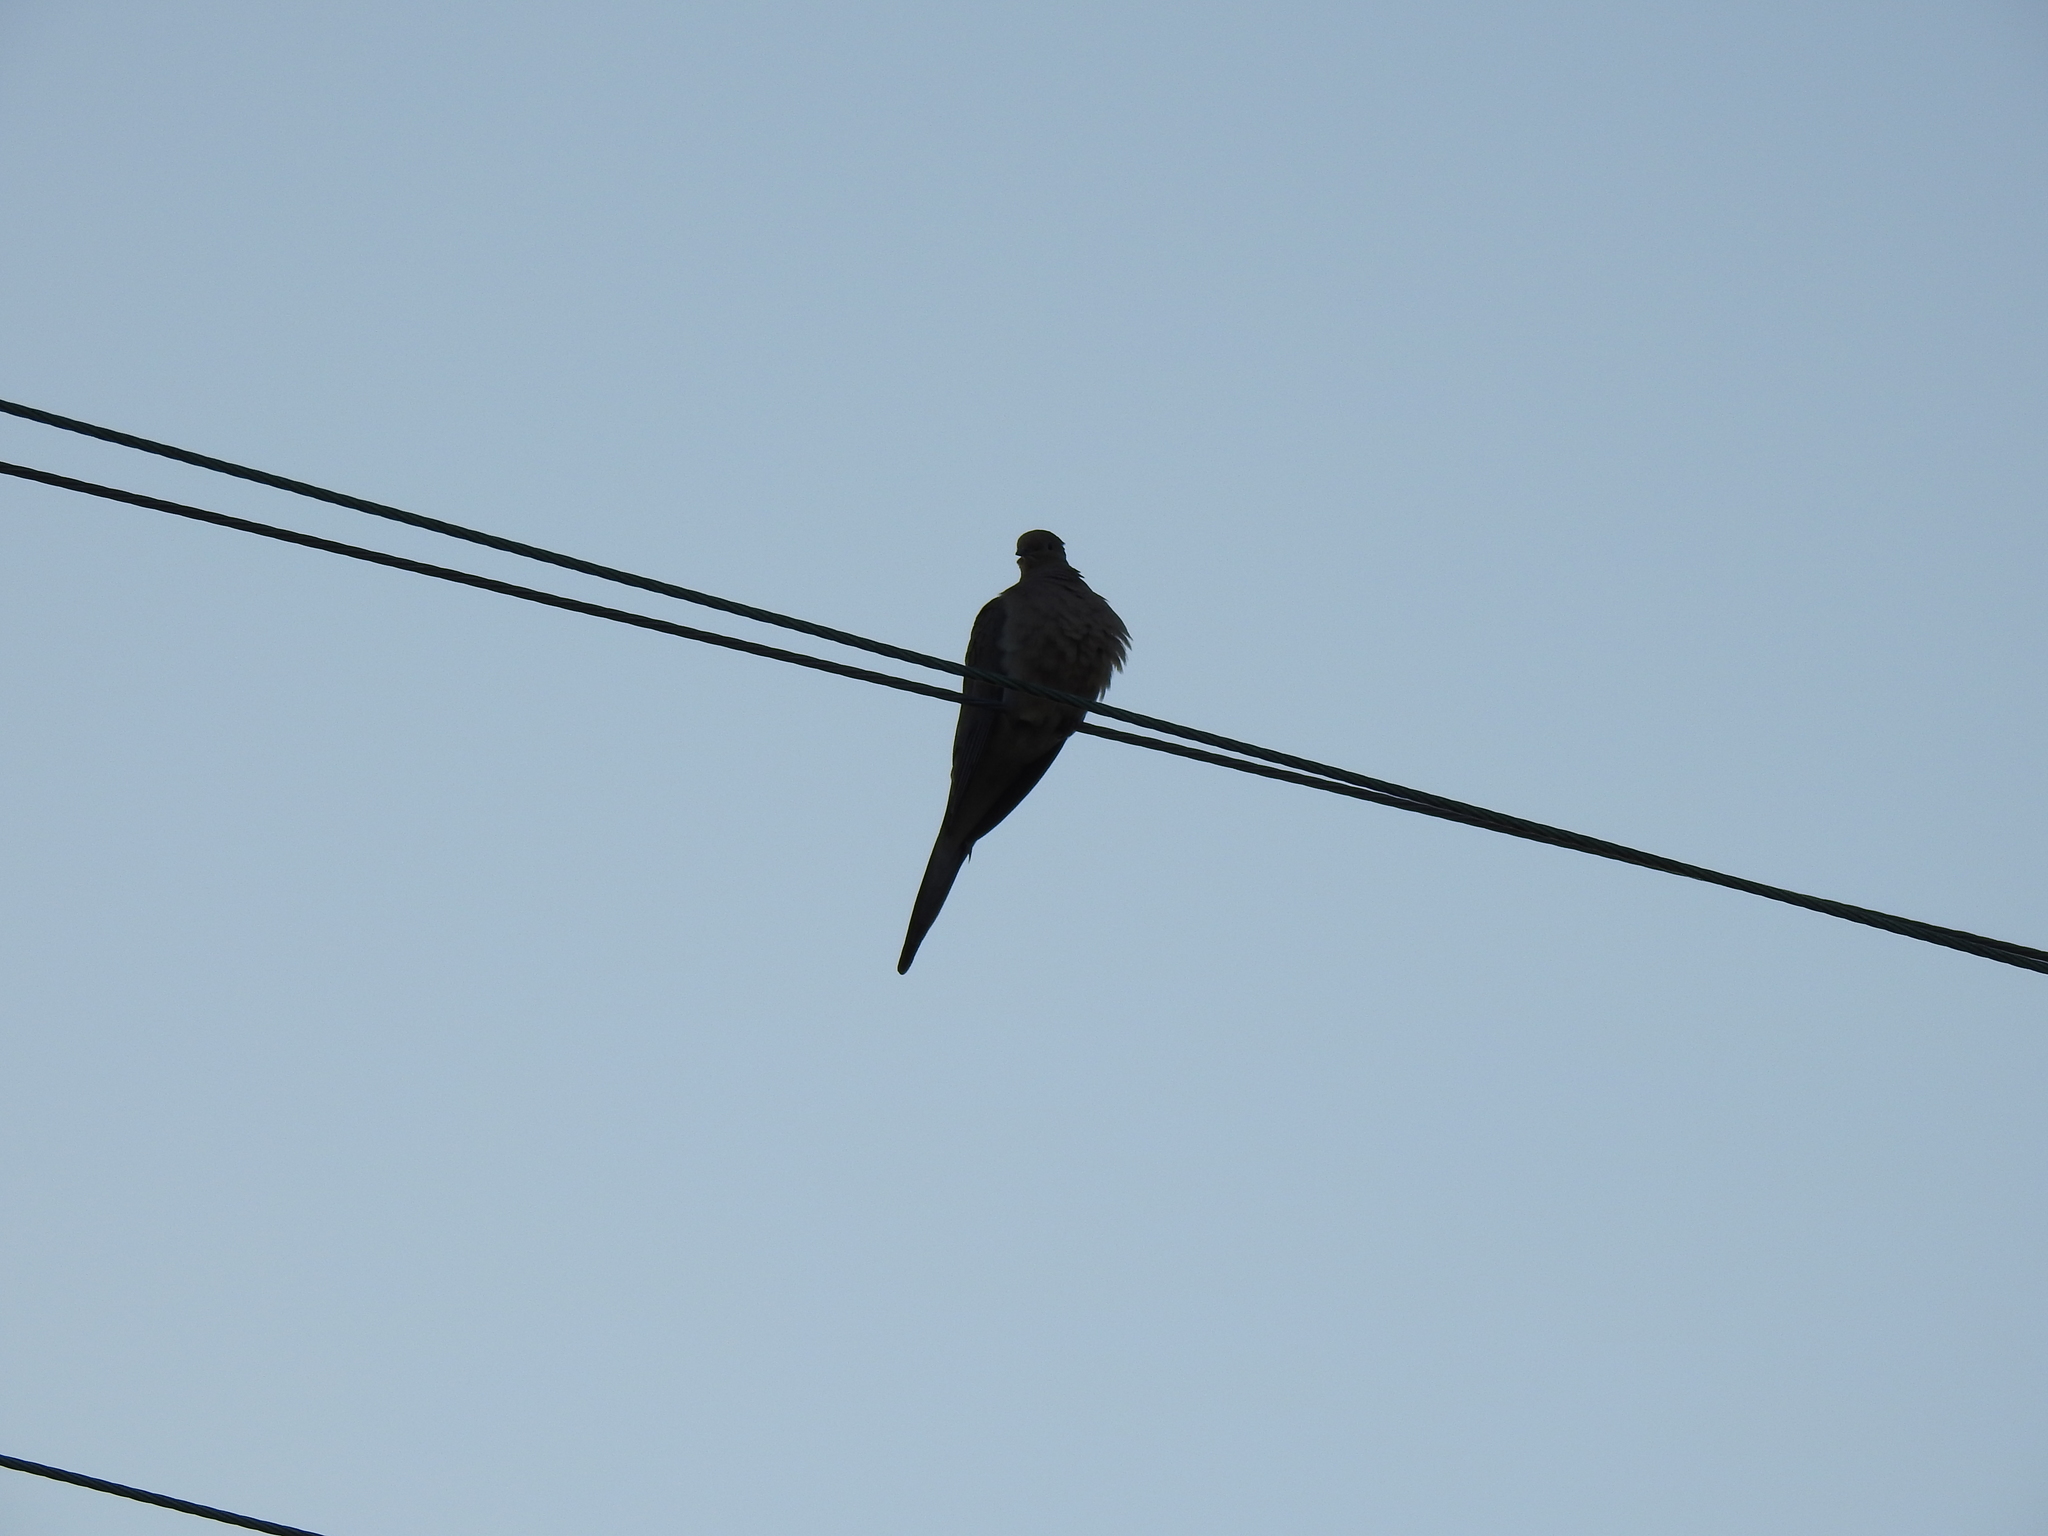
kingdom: Animalia
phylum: Chordata
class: Aves
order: Columbiformes
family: Columbidae
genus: Zenaida
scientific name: Zenaida macroura
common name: Mourning dove
